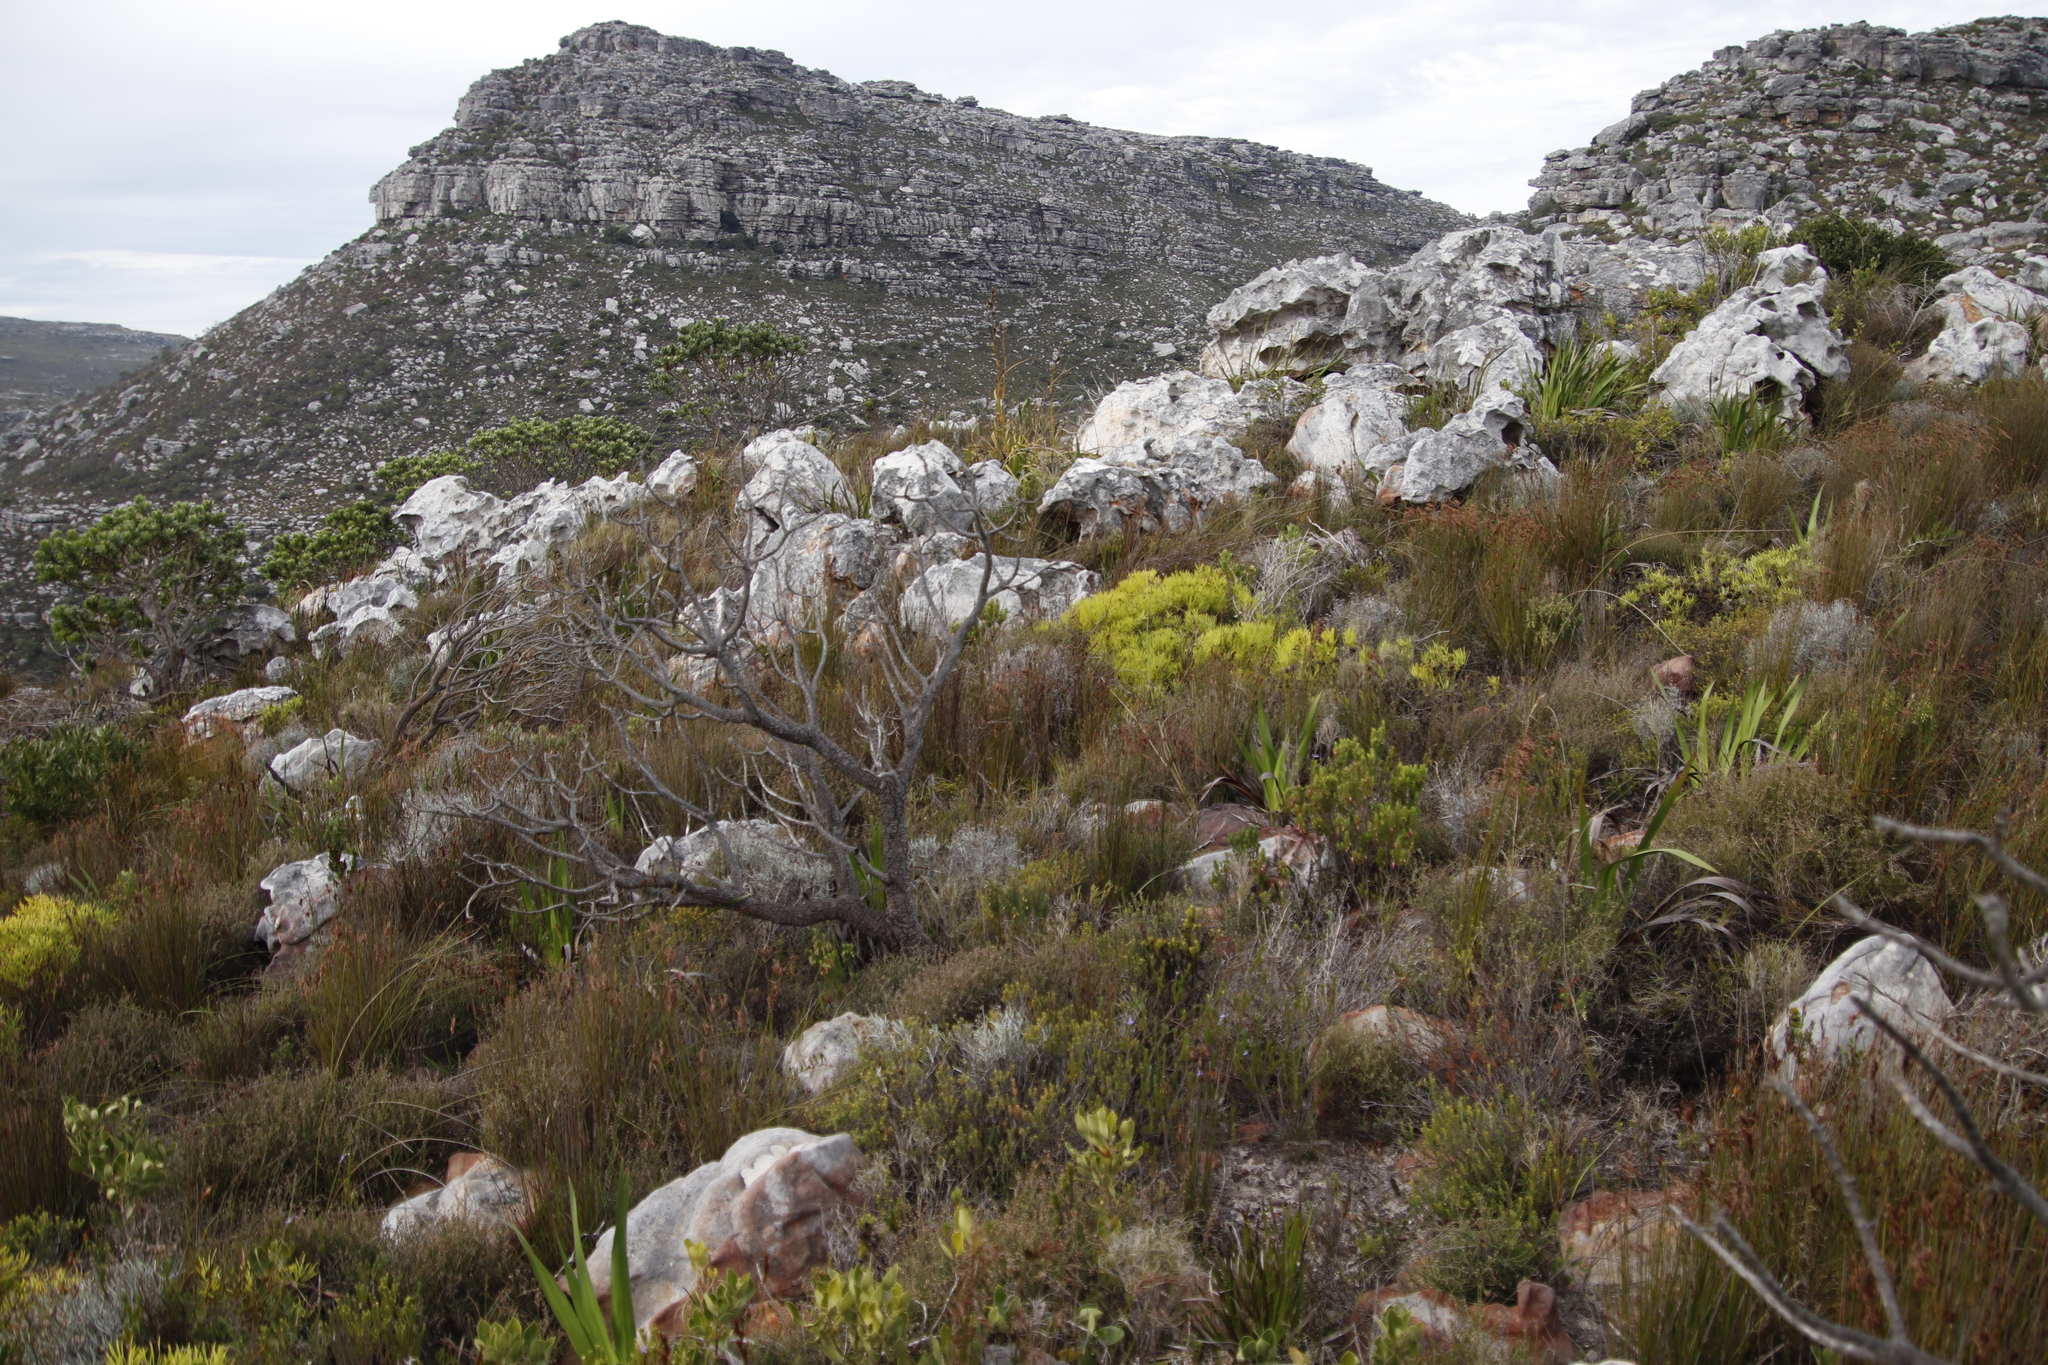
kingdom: Plantae
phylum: Tracheophyta
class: Magnoliopsida
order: Proteales
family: Proteaceae
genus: Leucadendron
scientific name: Leucadendron salignum
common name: Common sunshine conebush
